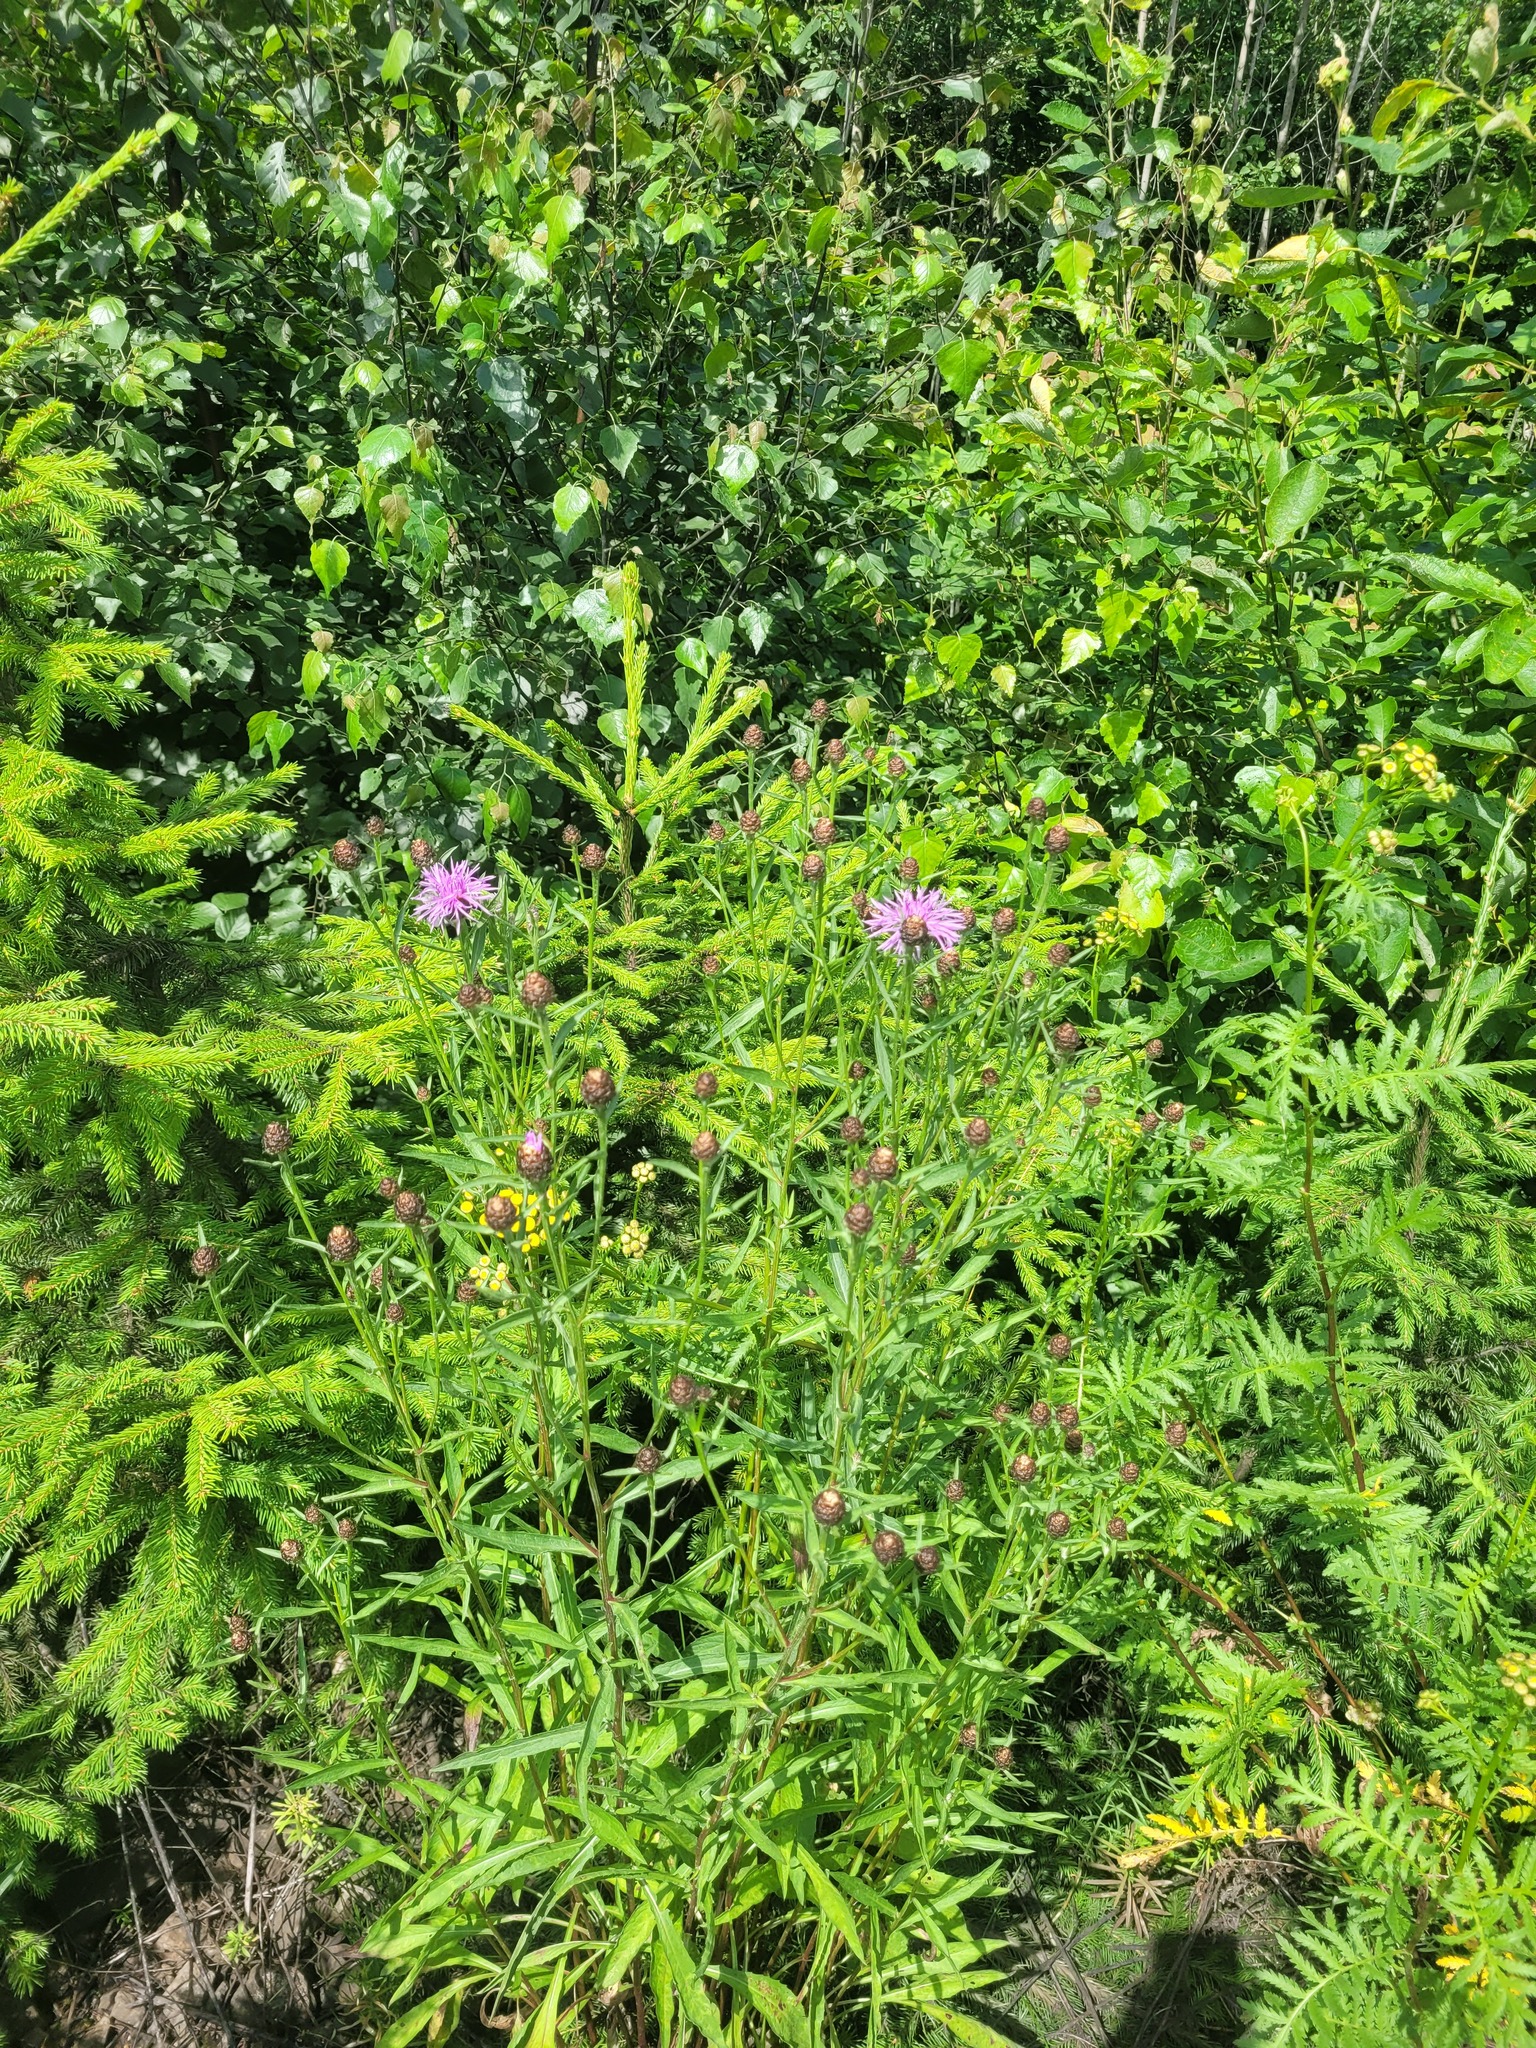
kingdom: Plantae
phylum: Tracheophyta
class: Magnoliopsida
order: Asterales
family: Asteraceae
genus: Centaurea
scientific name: Centaurea jacea
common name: Brown knapweed
